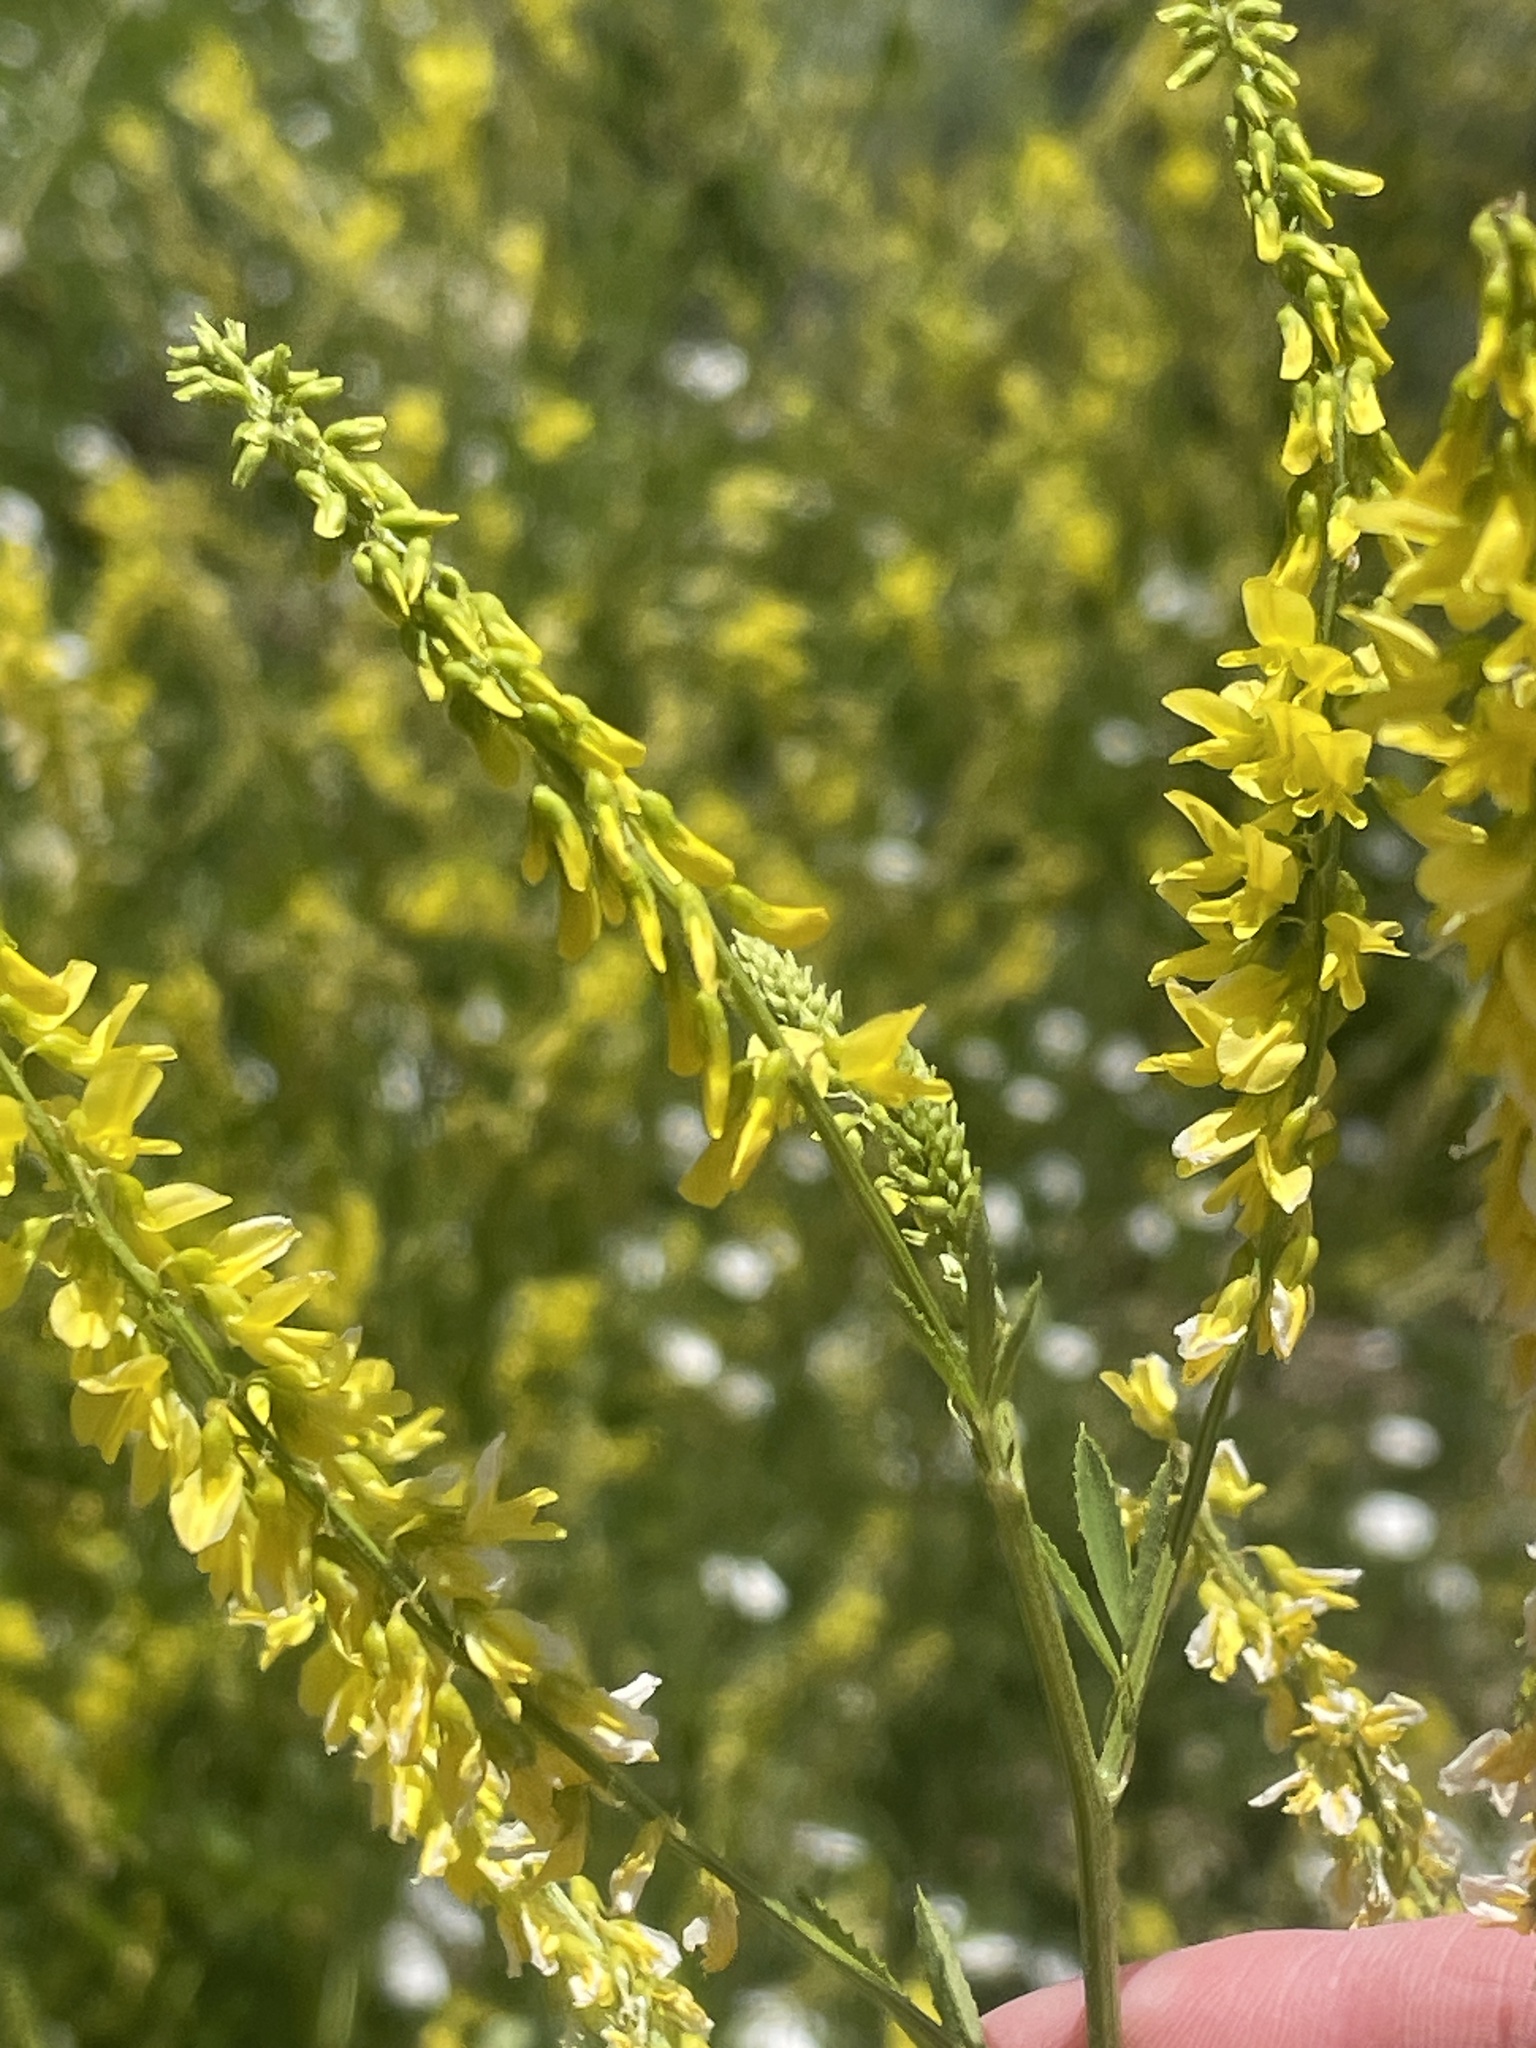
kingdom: Plantae
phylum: Tracheophyta
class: Magnoliopsida
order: Fabales
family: Fabaceae
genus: Melilotus
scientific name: Melilotus officinalis
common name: Sweetclover
